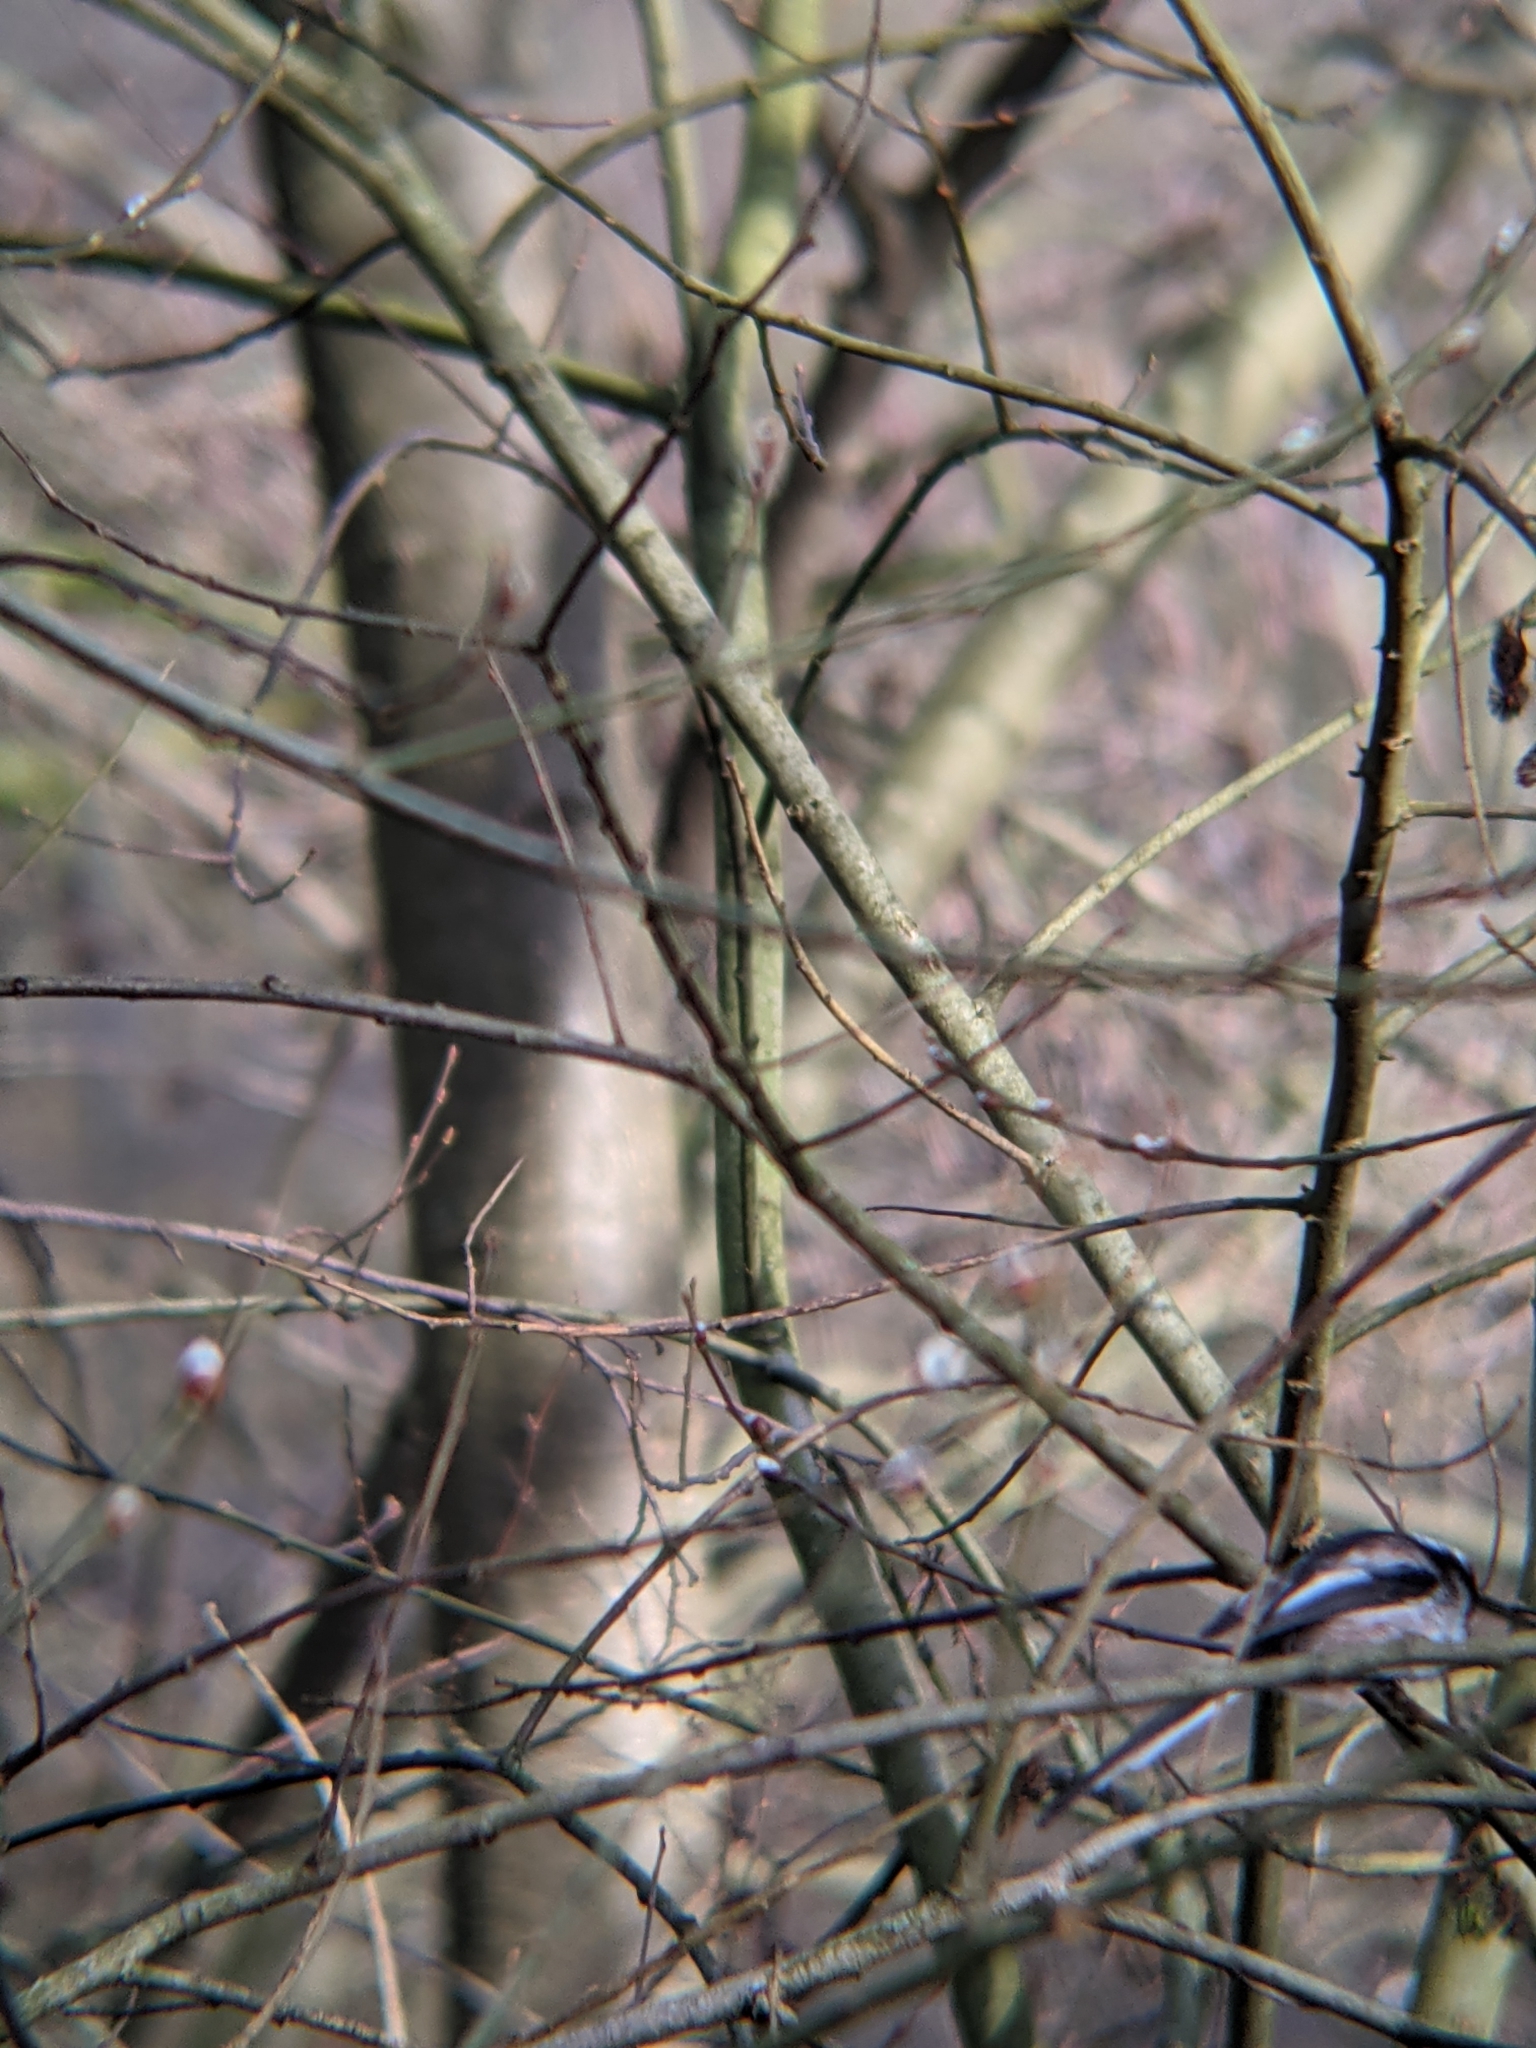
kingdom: Animalia
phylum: Chordata
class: Aves
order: Passeriformes
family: Aegithalidae
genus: Aegithalos
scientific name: Aegithalos caudatus
